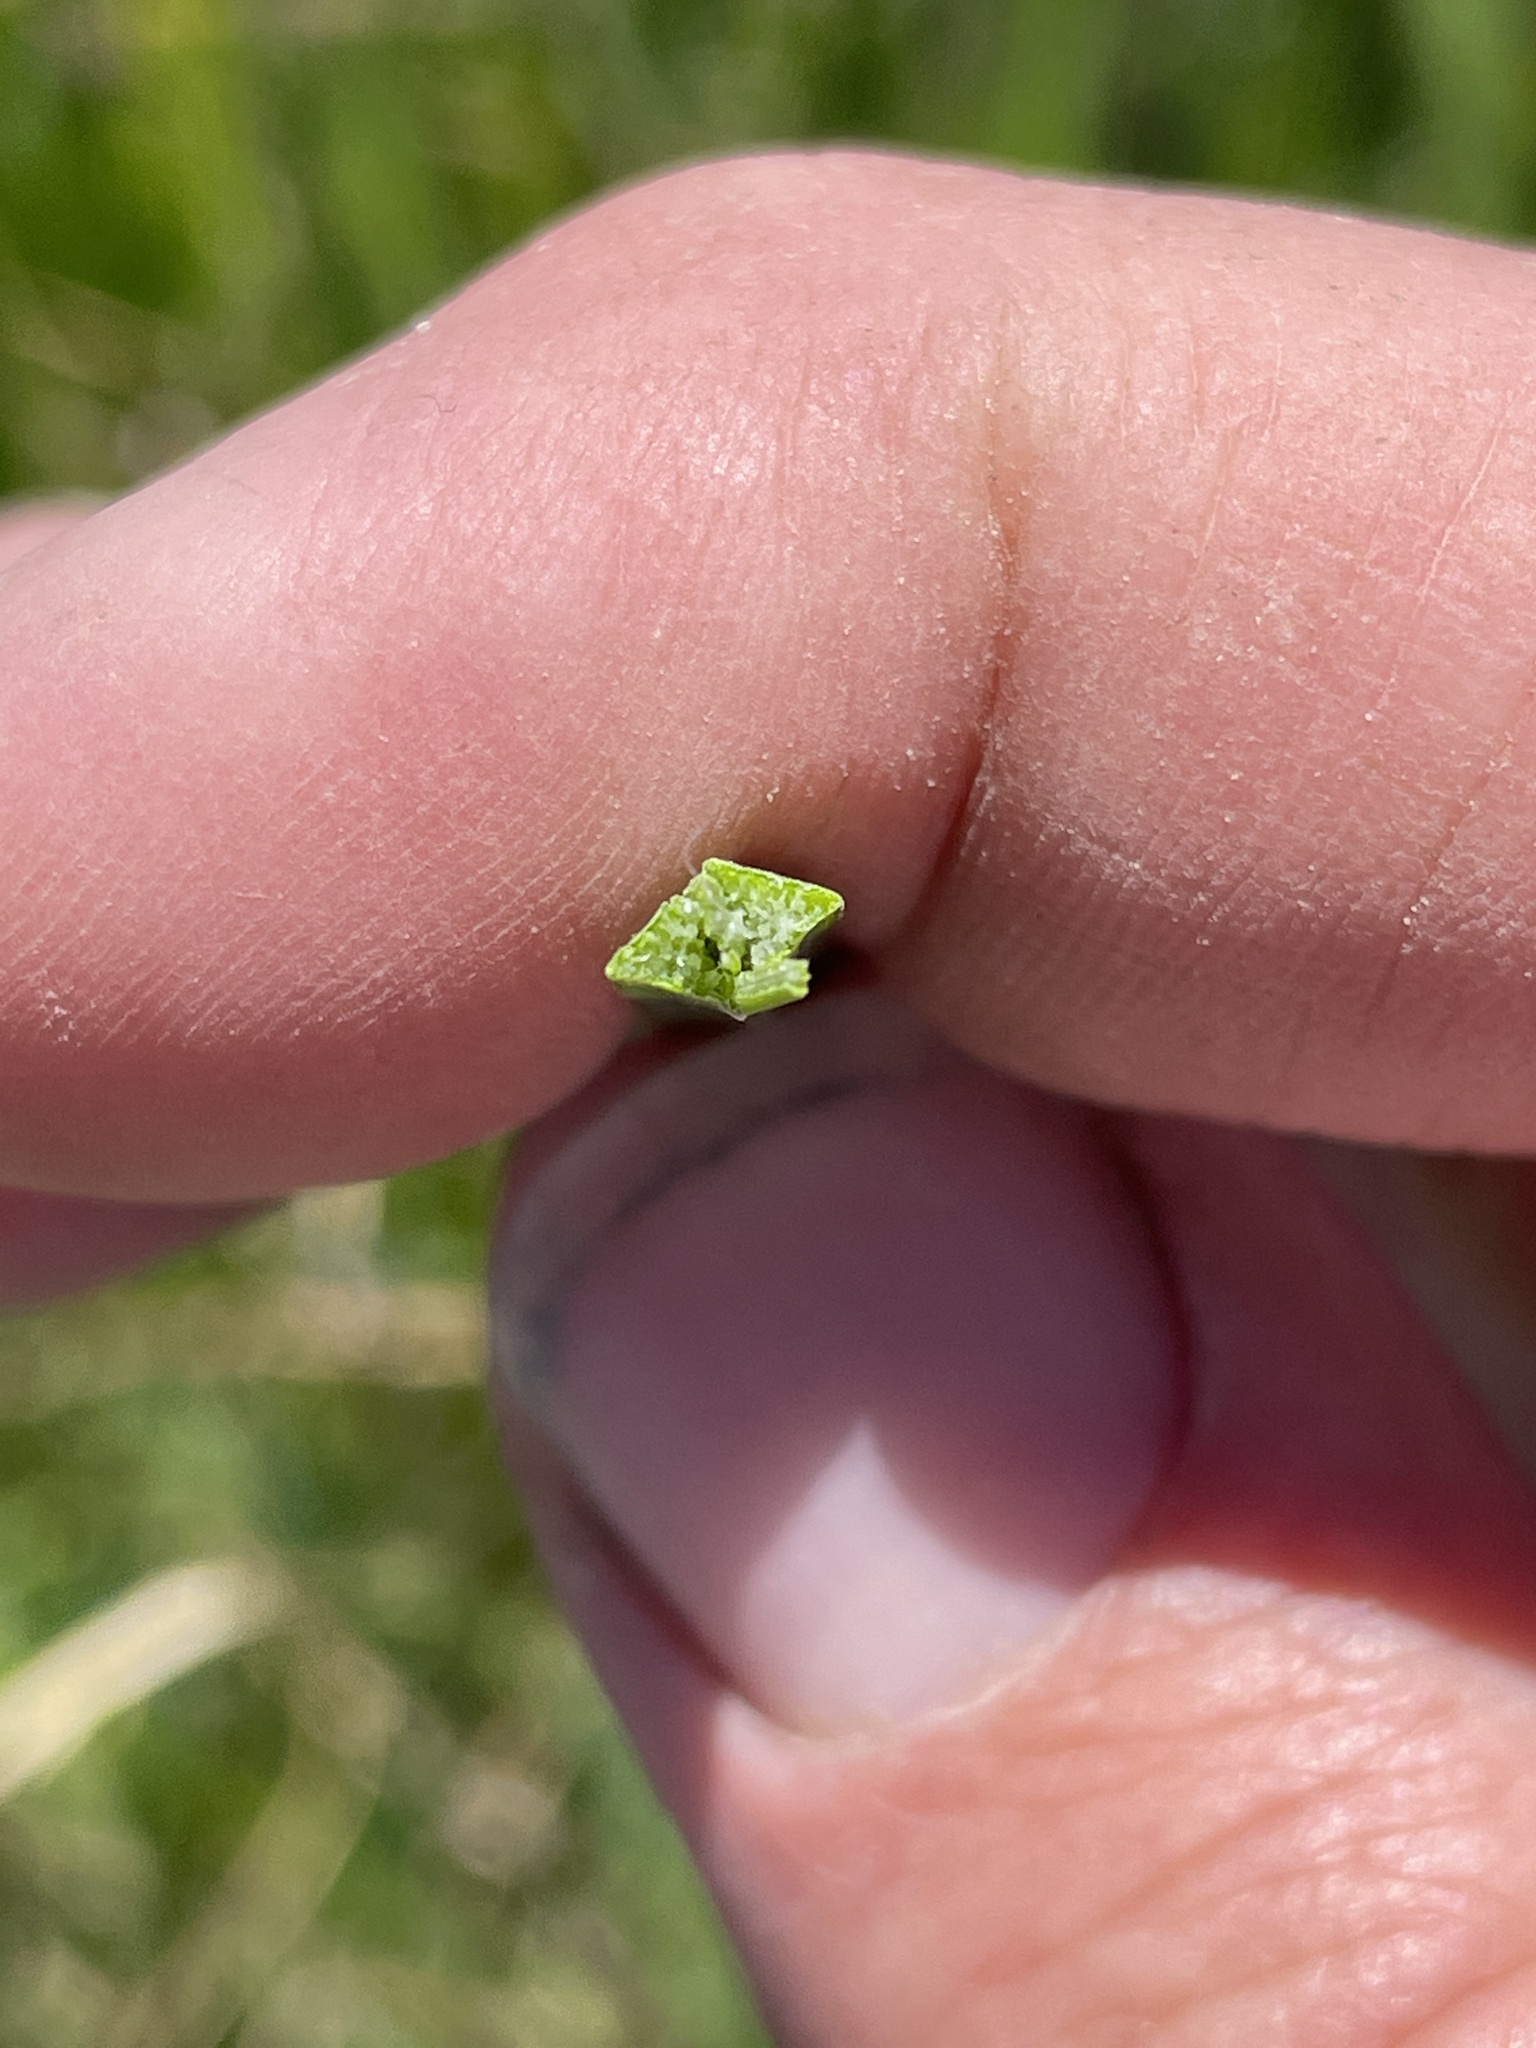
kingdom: Plantae
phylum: Tracheophyta
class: Liliopsida
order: Poales
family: Cyperaceae
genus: Schoenoplectus
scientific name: Schoenoplectus pungens
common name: Sharp club-rush
